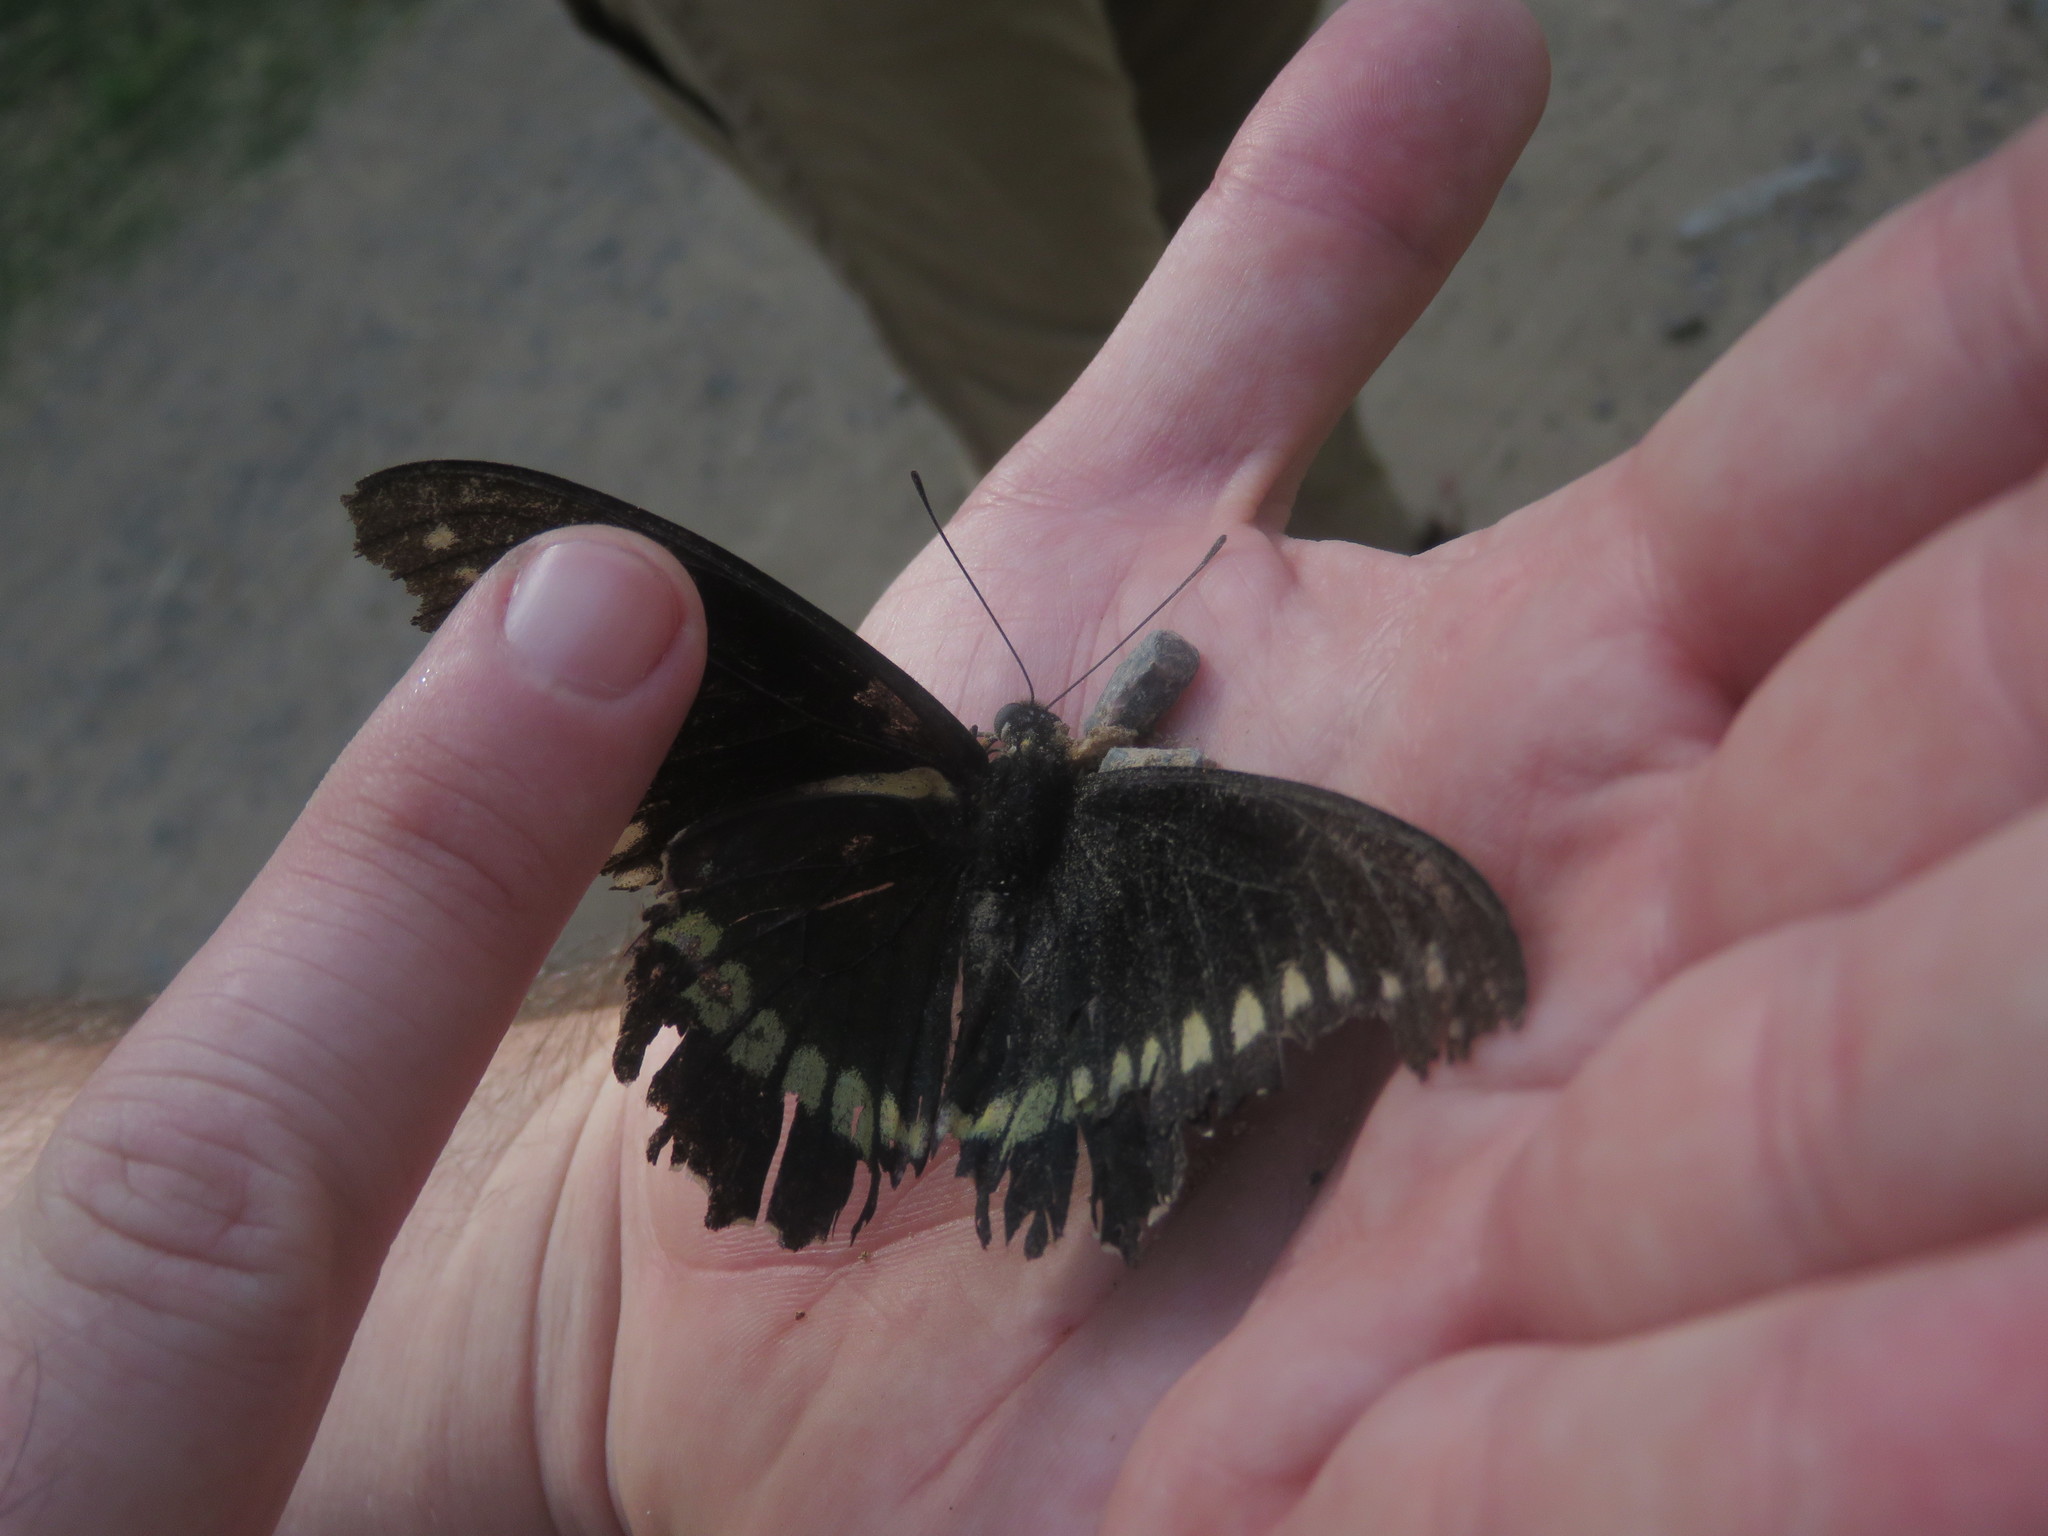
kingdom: Animalia
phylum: Arthropoda
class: Insecta
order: Lepidoptera
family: Papilionidae
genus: Battus
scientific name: Battus polydamas
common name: Polydamas swallowtail
